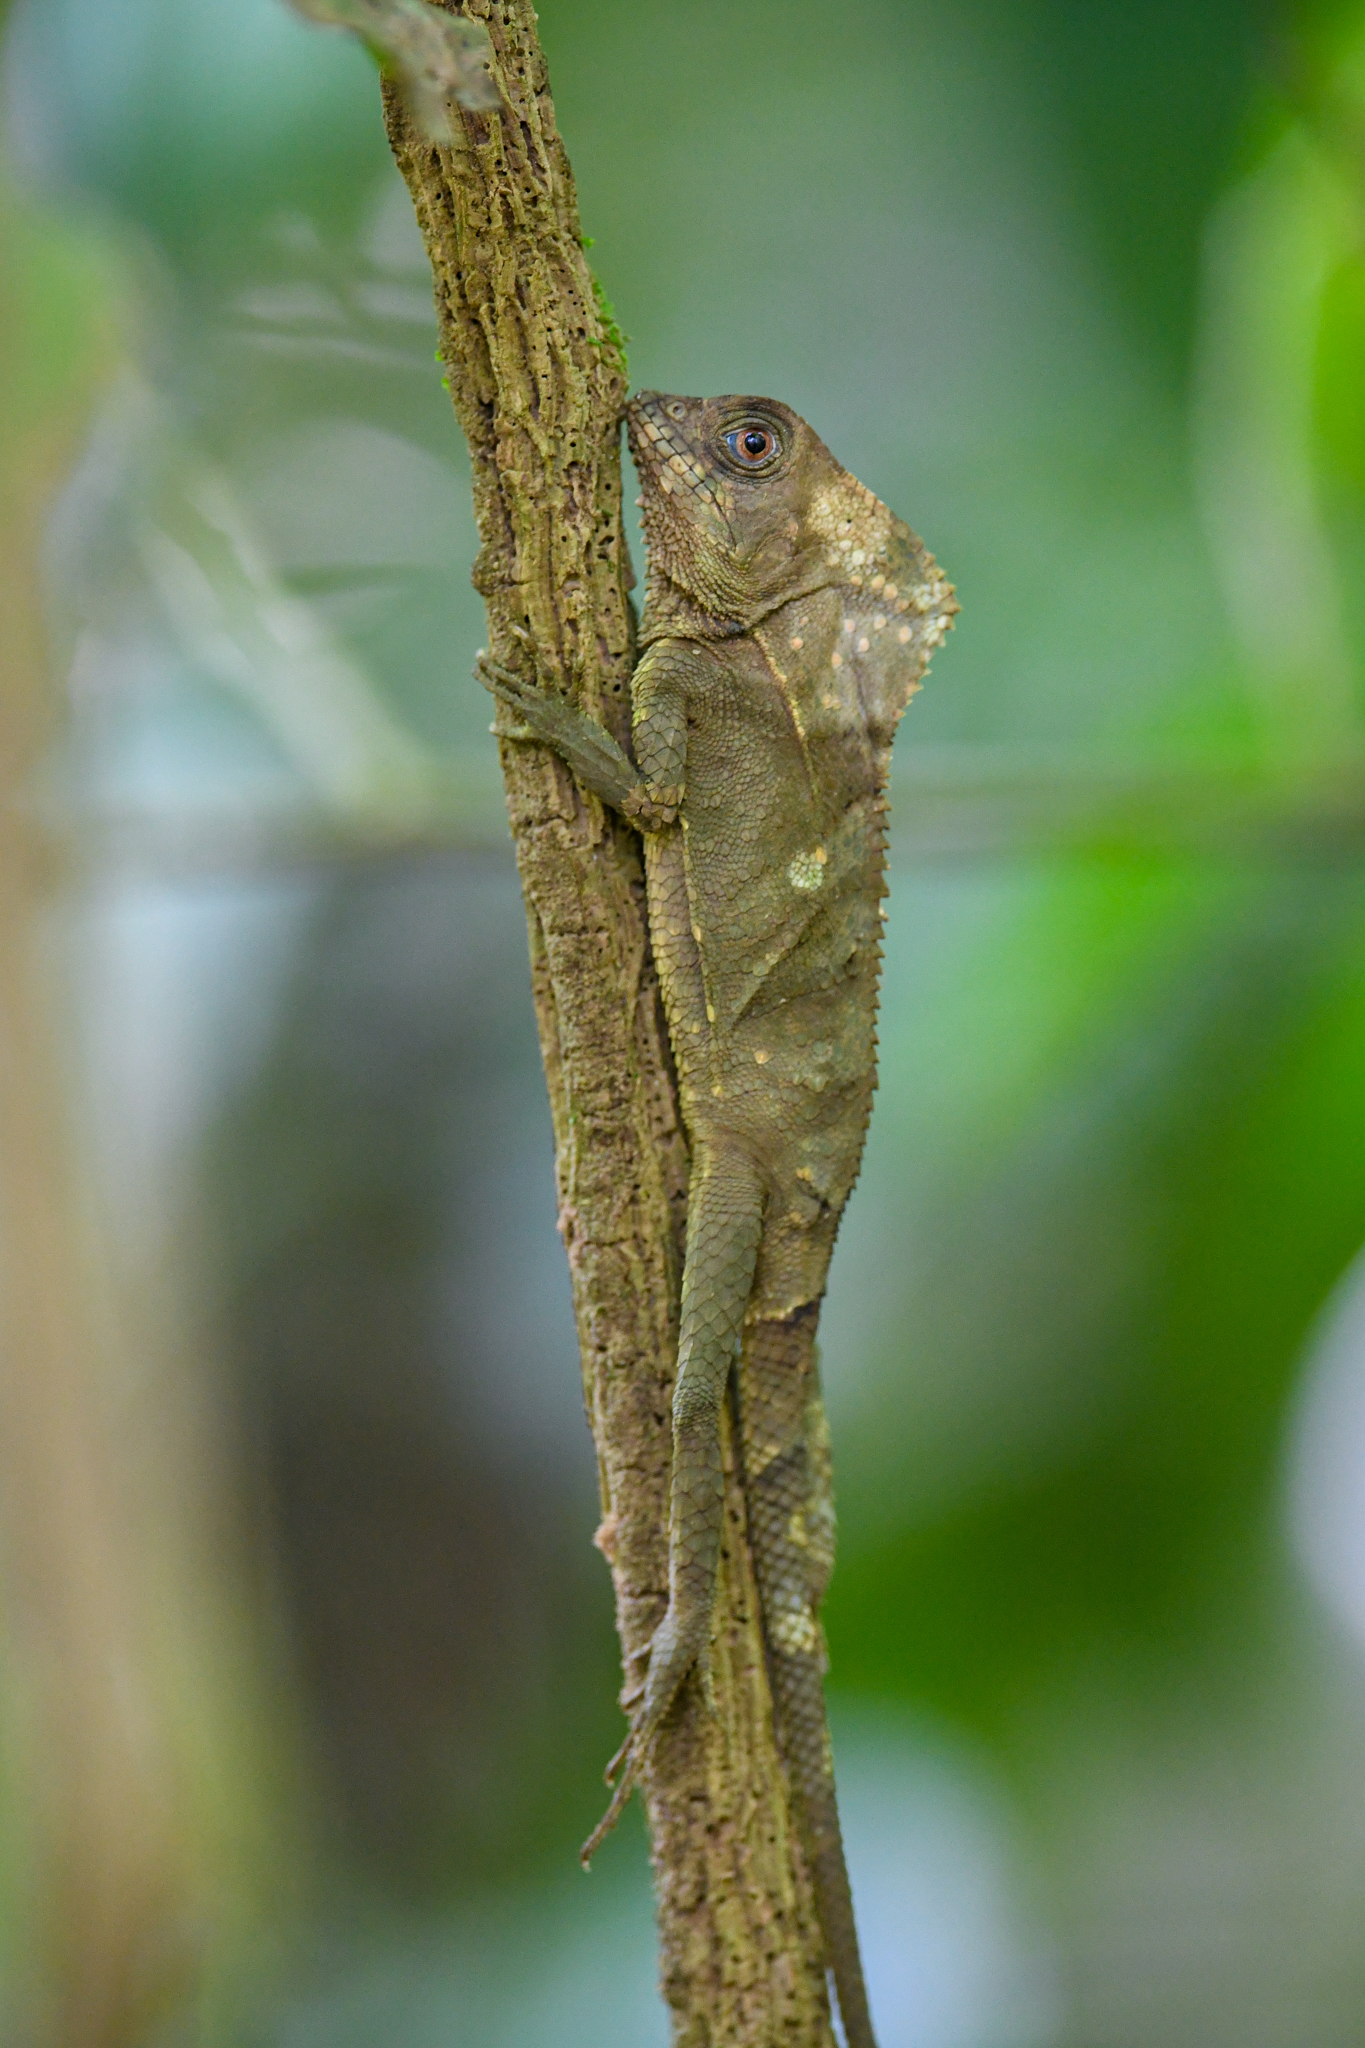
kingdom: Animalia
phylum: Chordata
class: Squamata
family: Corytophanidae
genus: Corytophanes
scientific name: Corytophanes cristatus
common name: Smooth helmeted iguana
